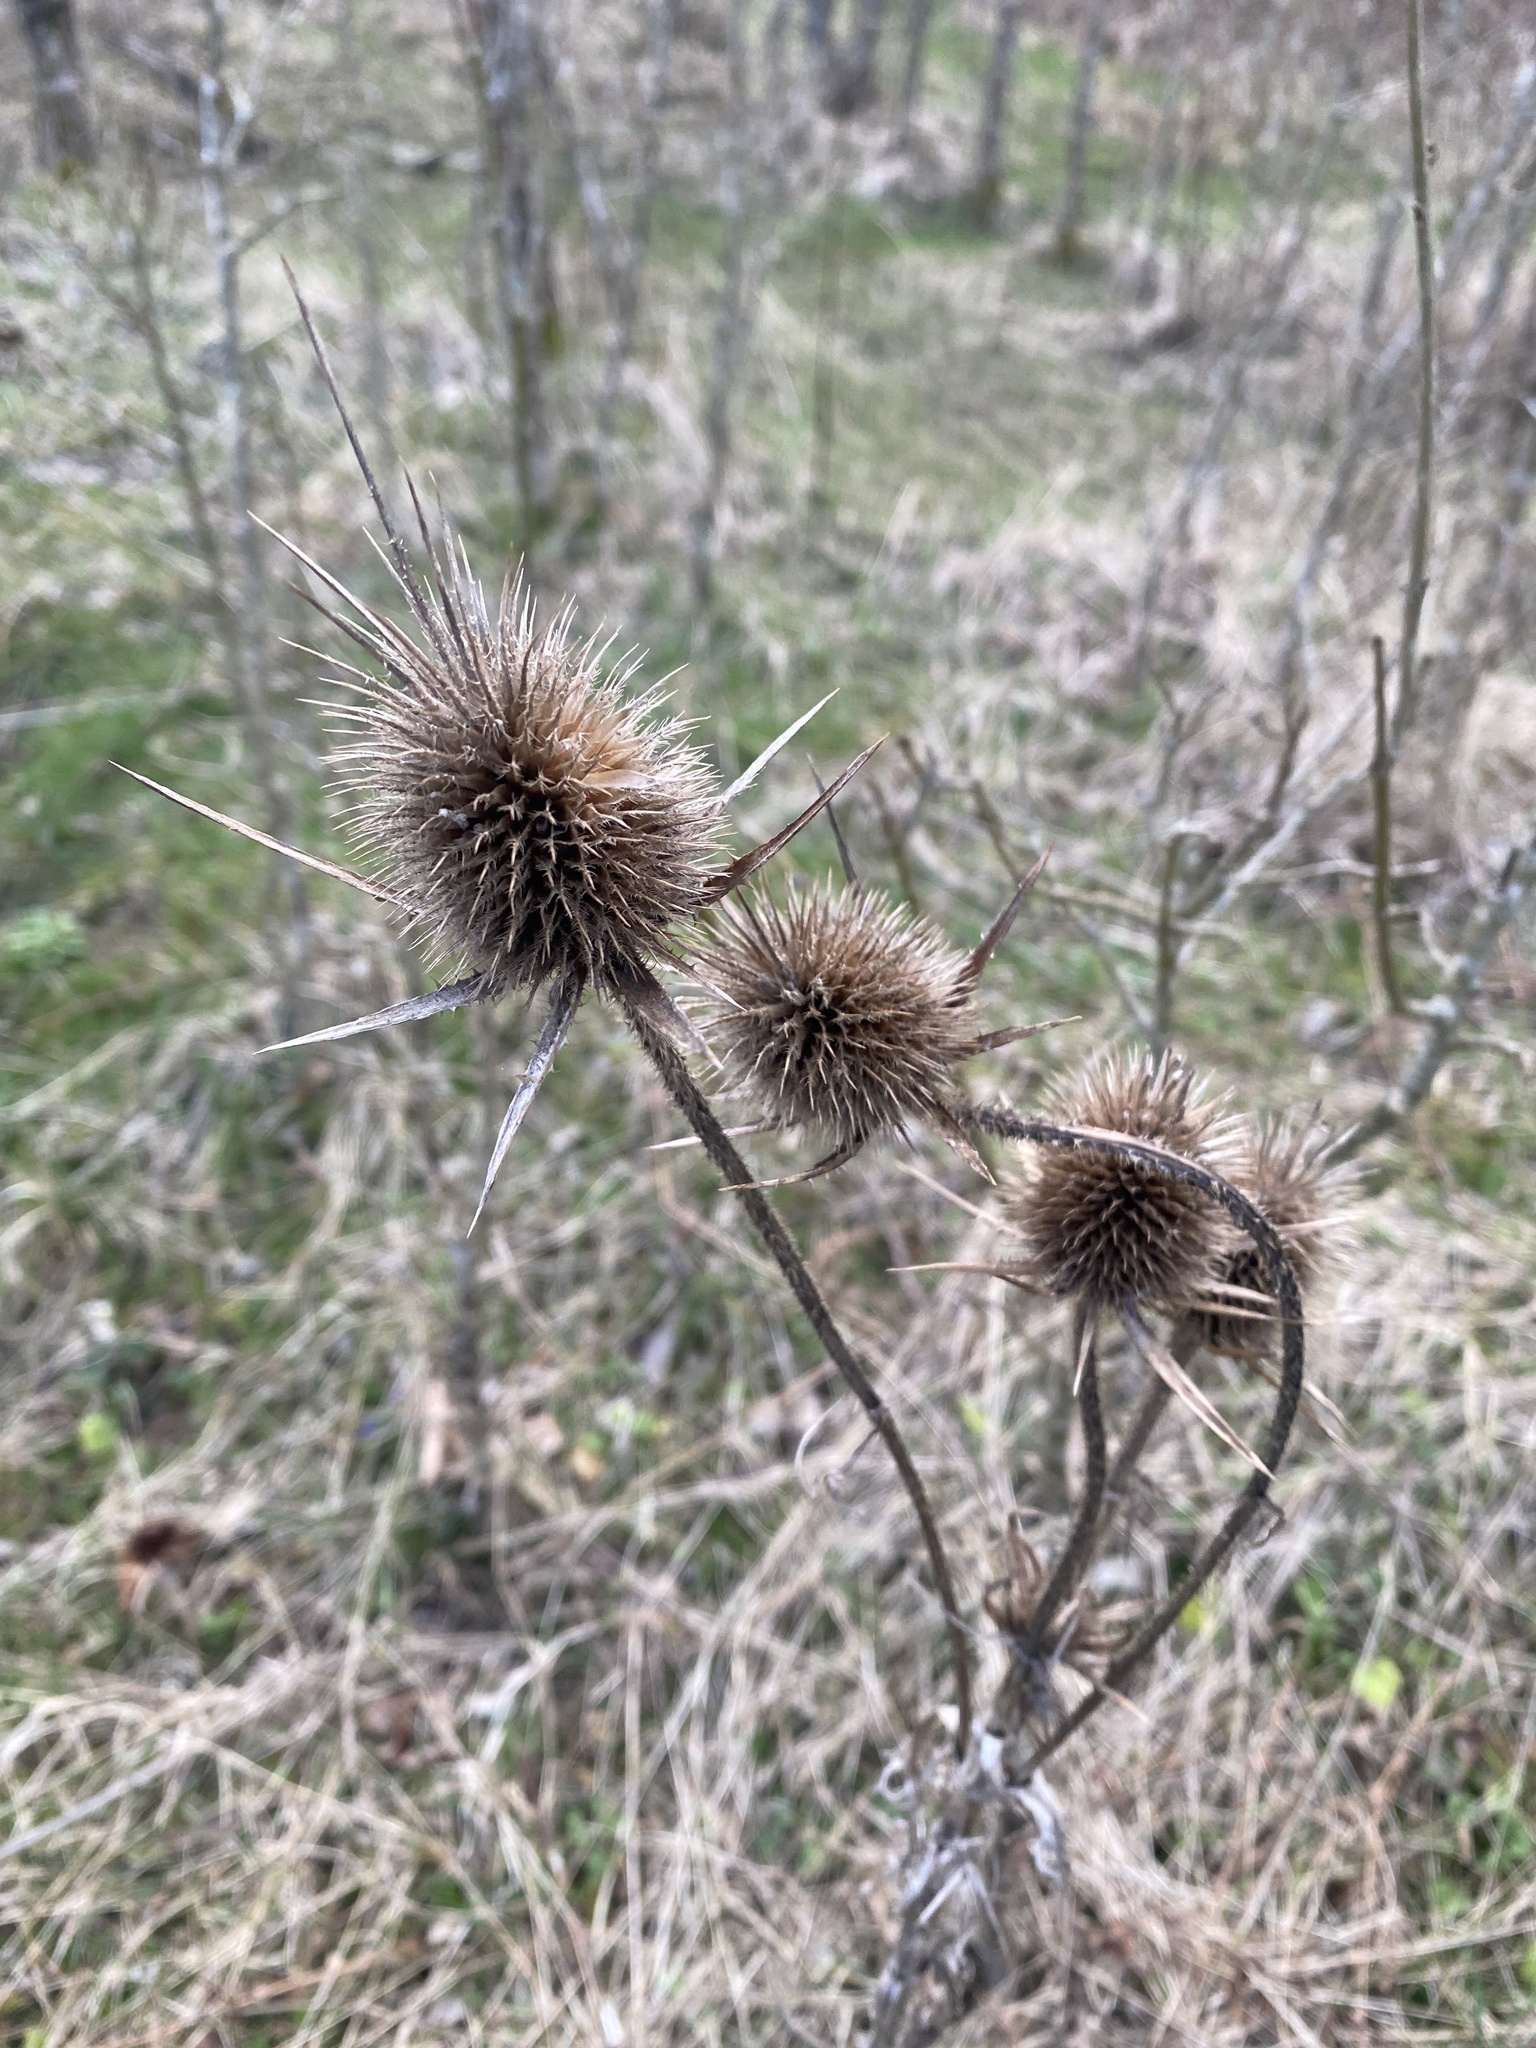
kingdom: Plantae
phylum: Tracheophyta
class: Magnoliopsida
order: Dipsacales
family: Caprifoliaceae
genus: Dipsacus
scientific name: Dipsacus laciniatus
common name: Cut-leaved teasel
